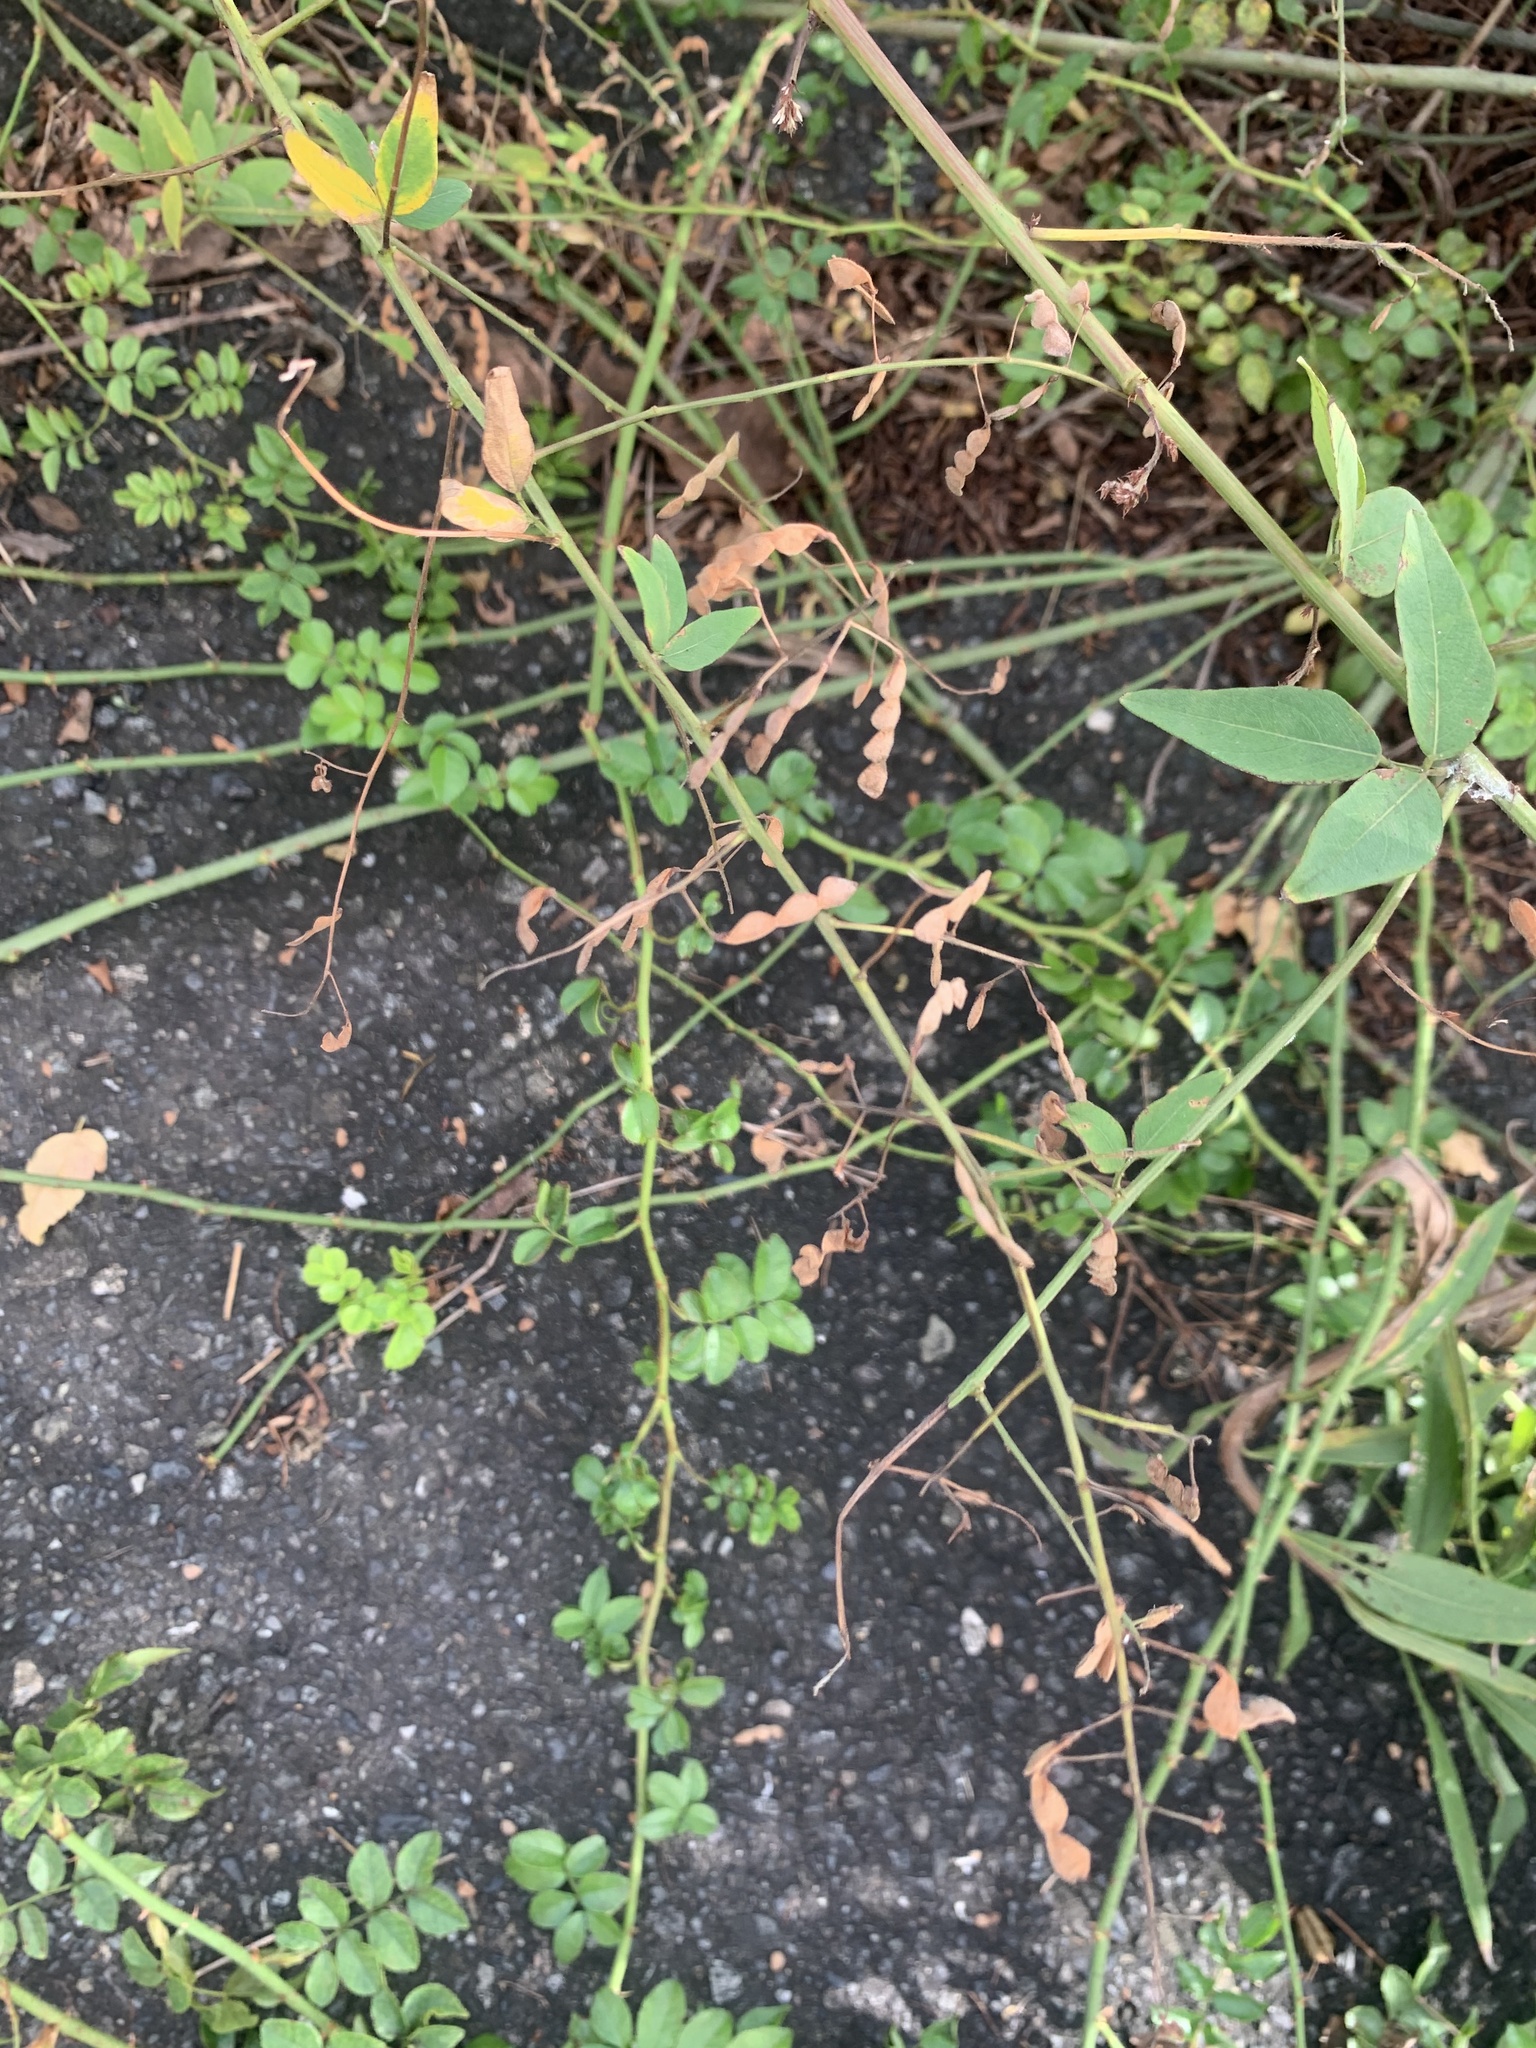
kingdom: Plantae
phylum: Tracheophyta
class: Magnoliopsida
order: Fabales
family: Fabaceae
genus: Desmodium
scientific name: Desmodium paniculatum
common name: Panicled tick-clover
